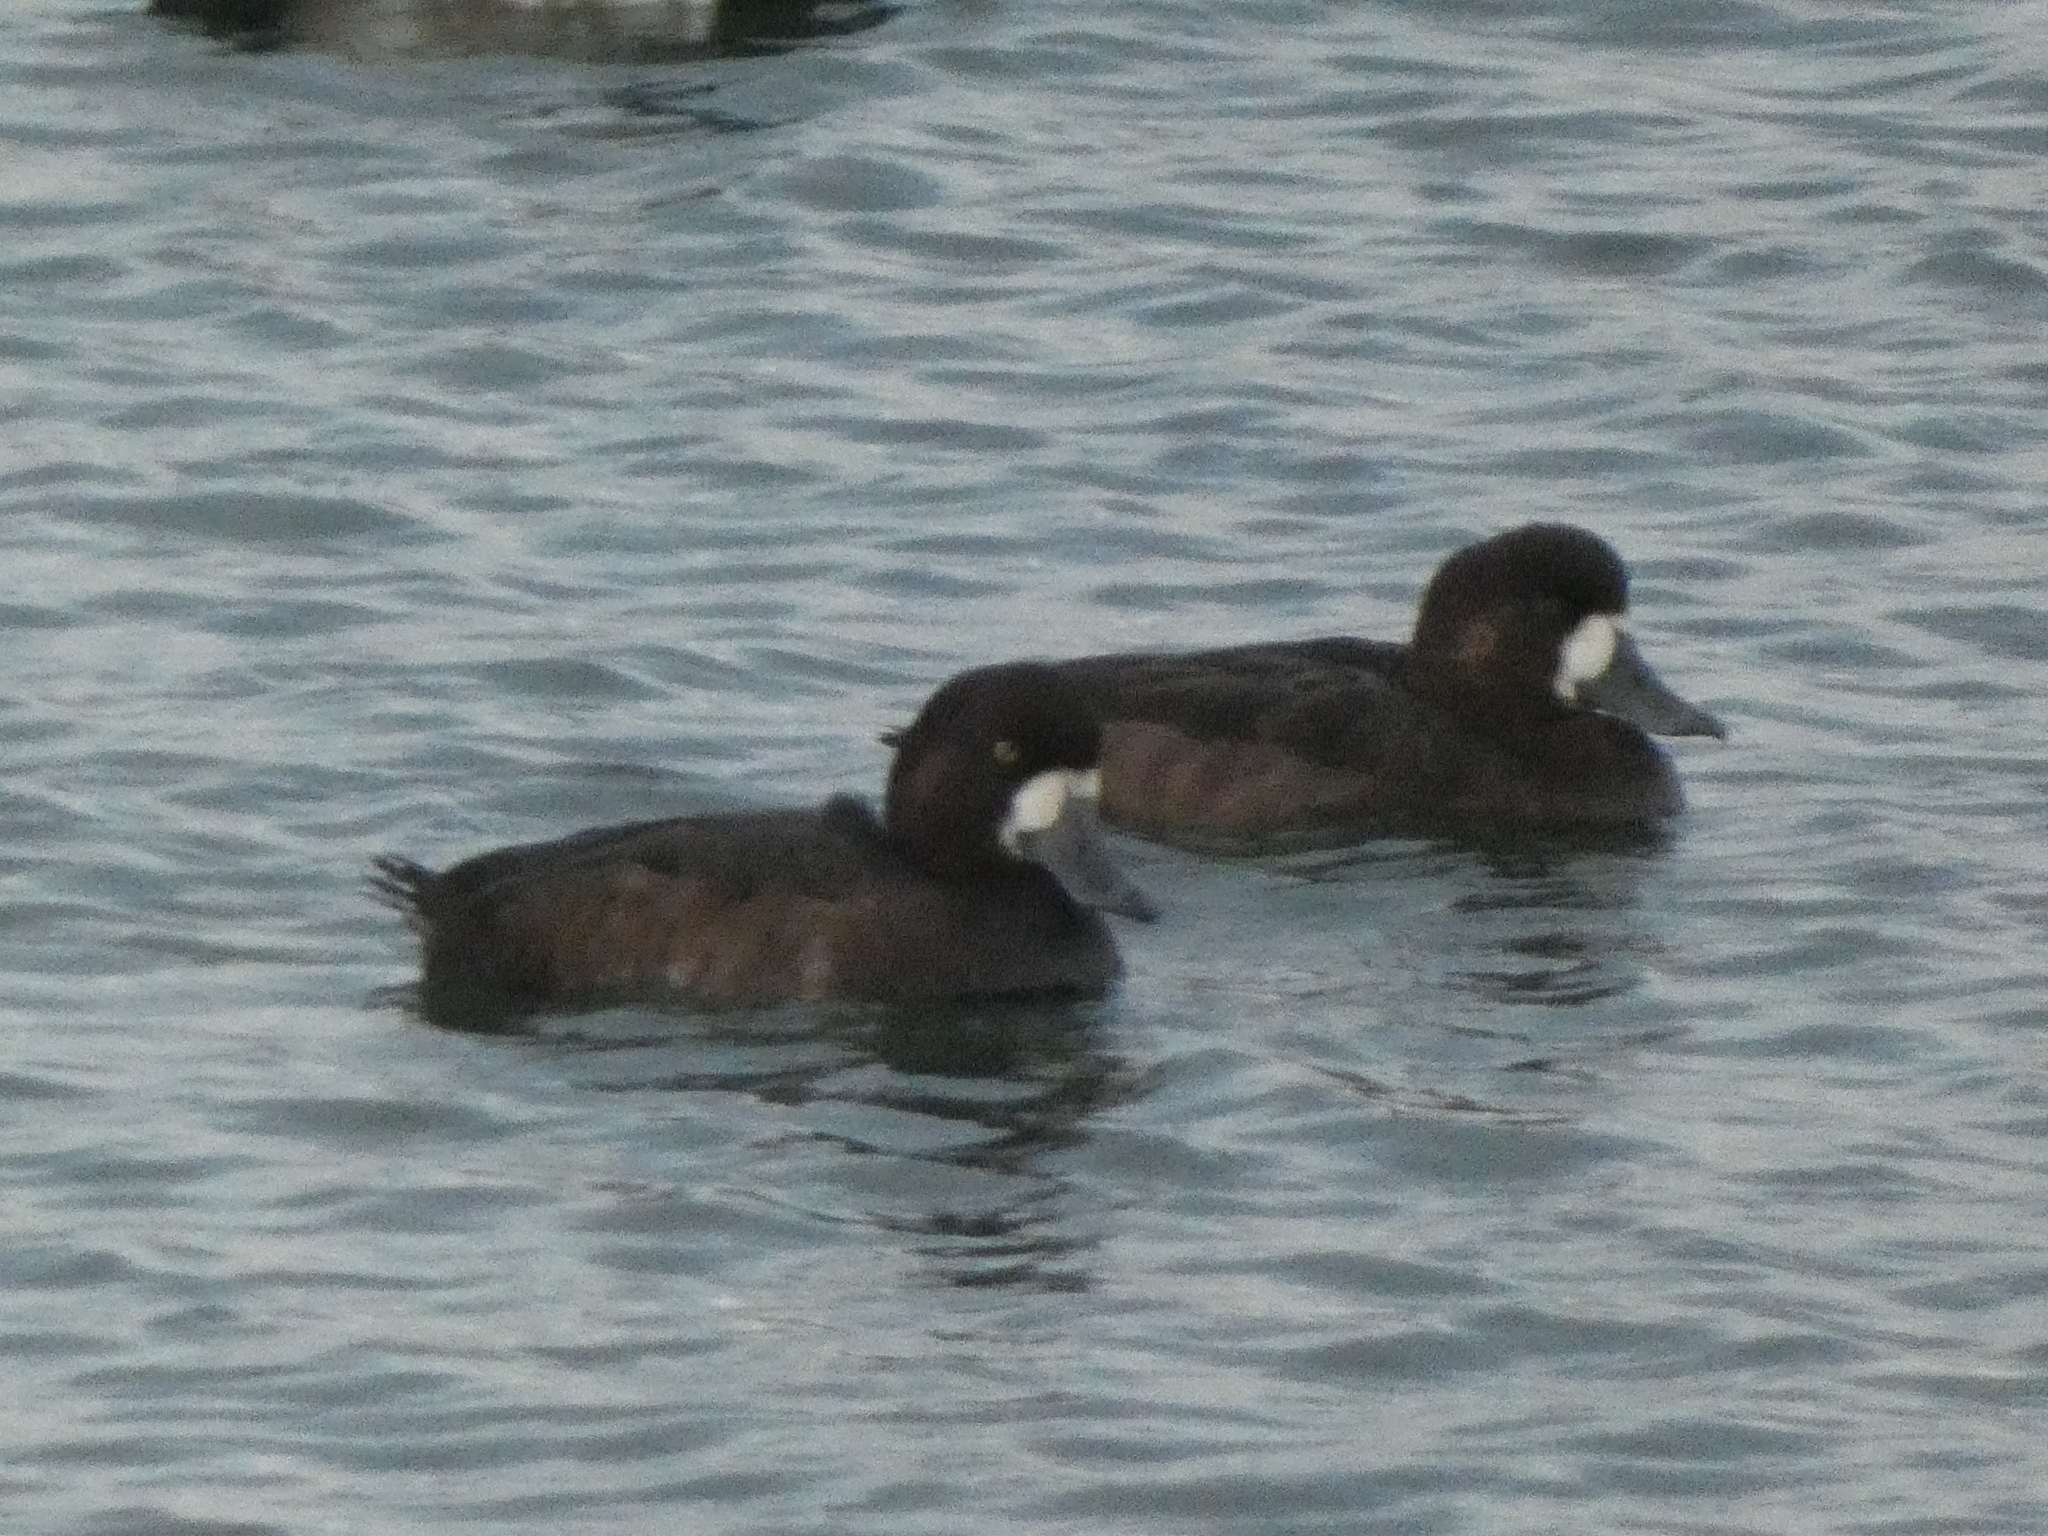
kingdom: Animalia
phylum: Chordata
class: Aves
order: Anseriformes
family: Anatidae
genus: Aythya
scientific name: Aythya marila
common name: Greater scaup
